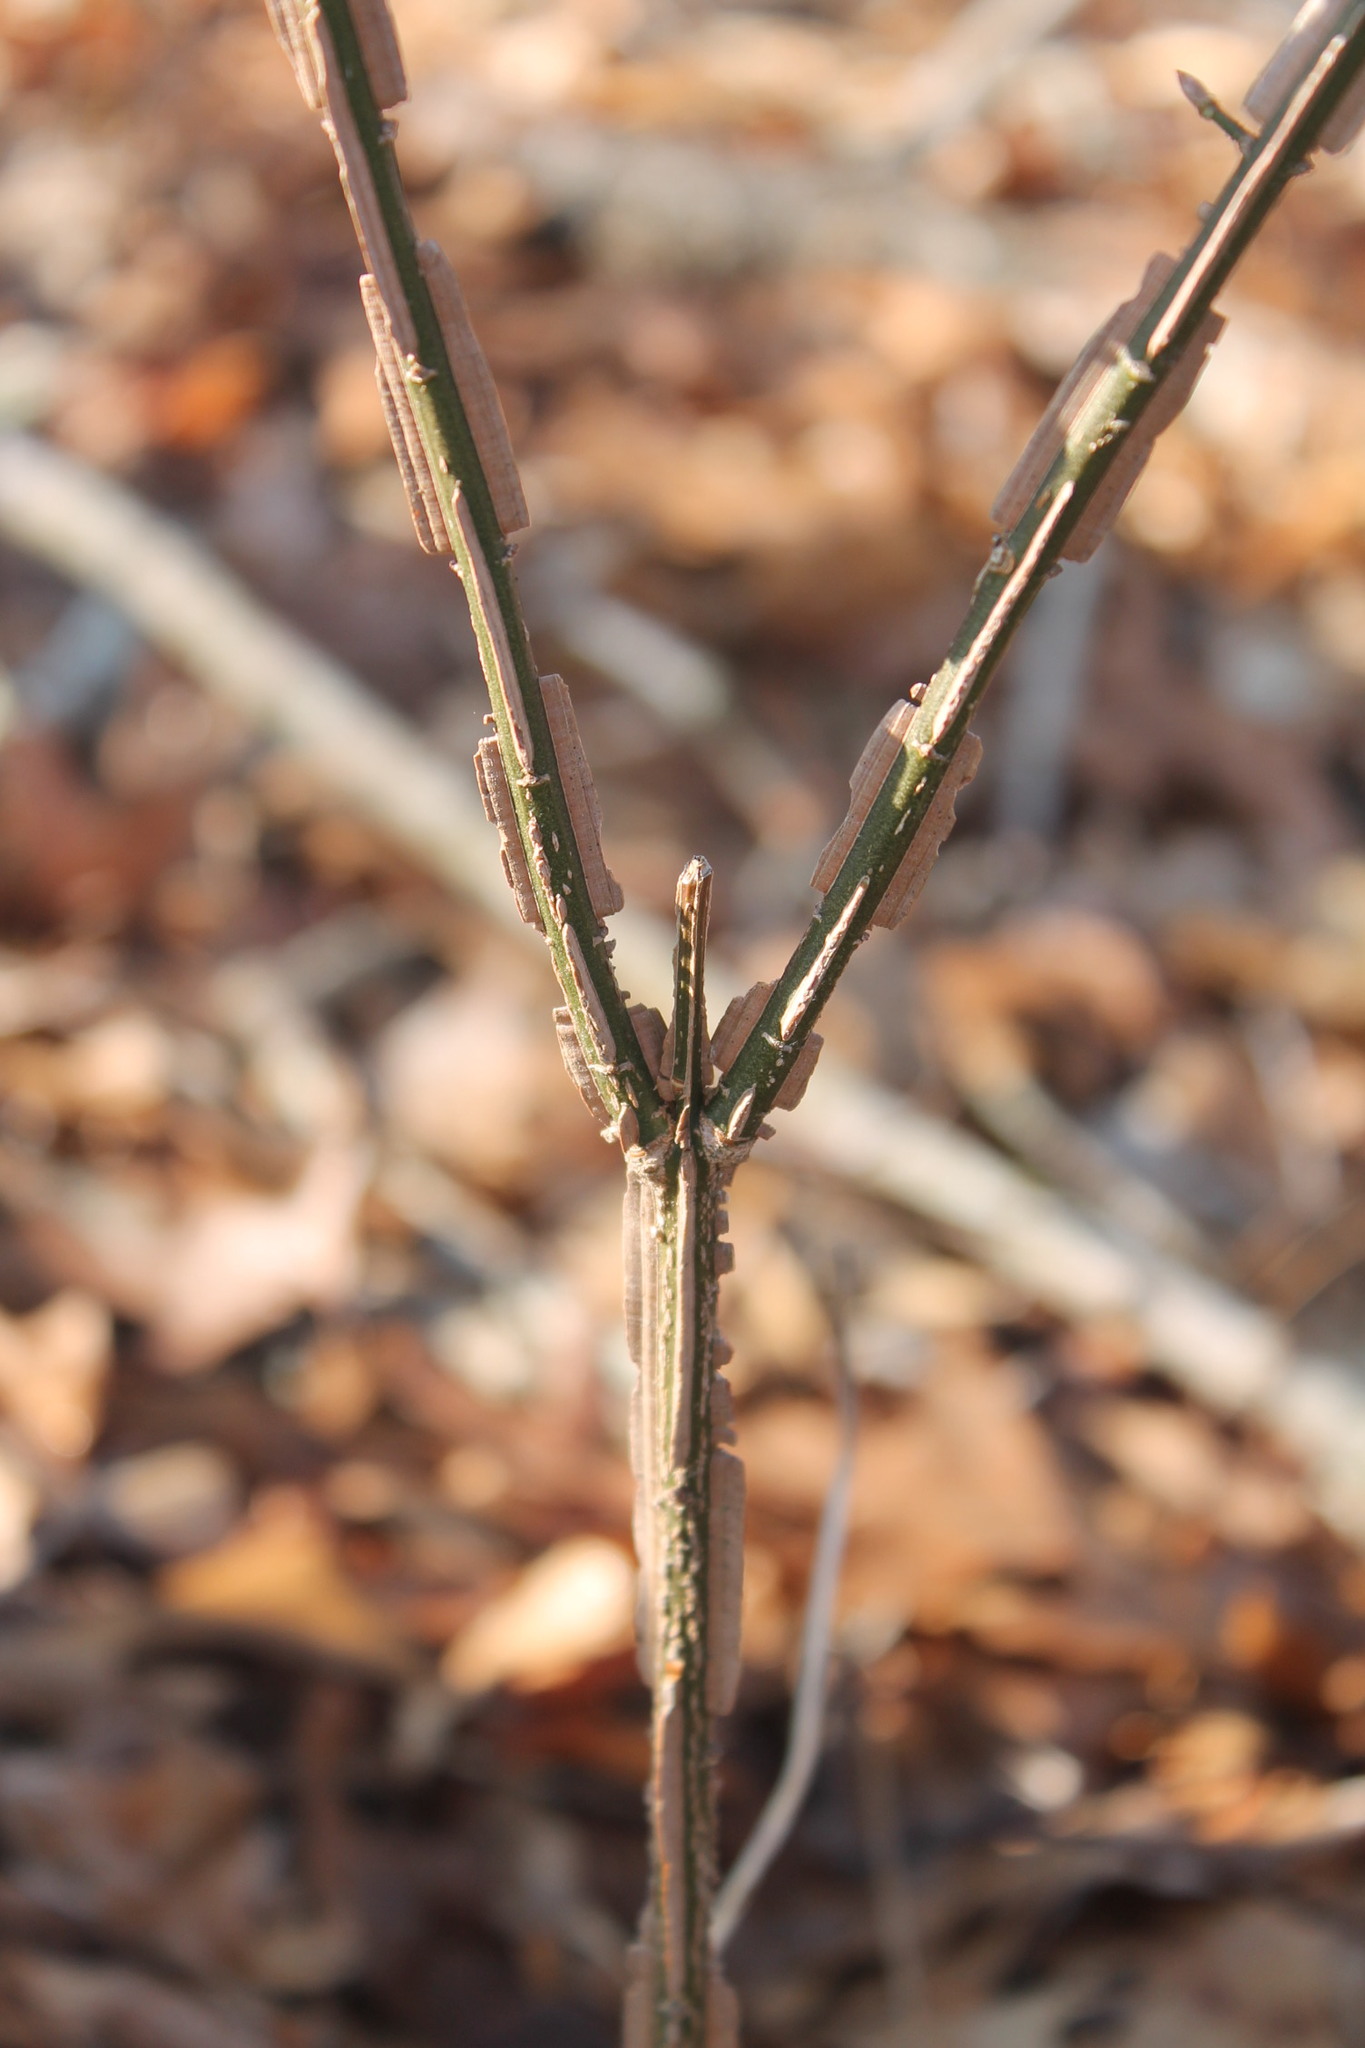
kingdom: Plantae
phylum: Tracheophyta
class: Magnoliopsida
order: Celastrales
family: Celastraceae
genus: Euonymus
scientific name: Euonymus alatus
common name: Winged euonymus
